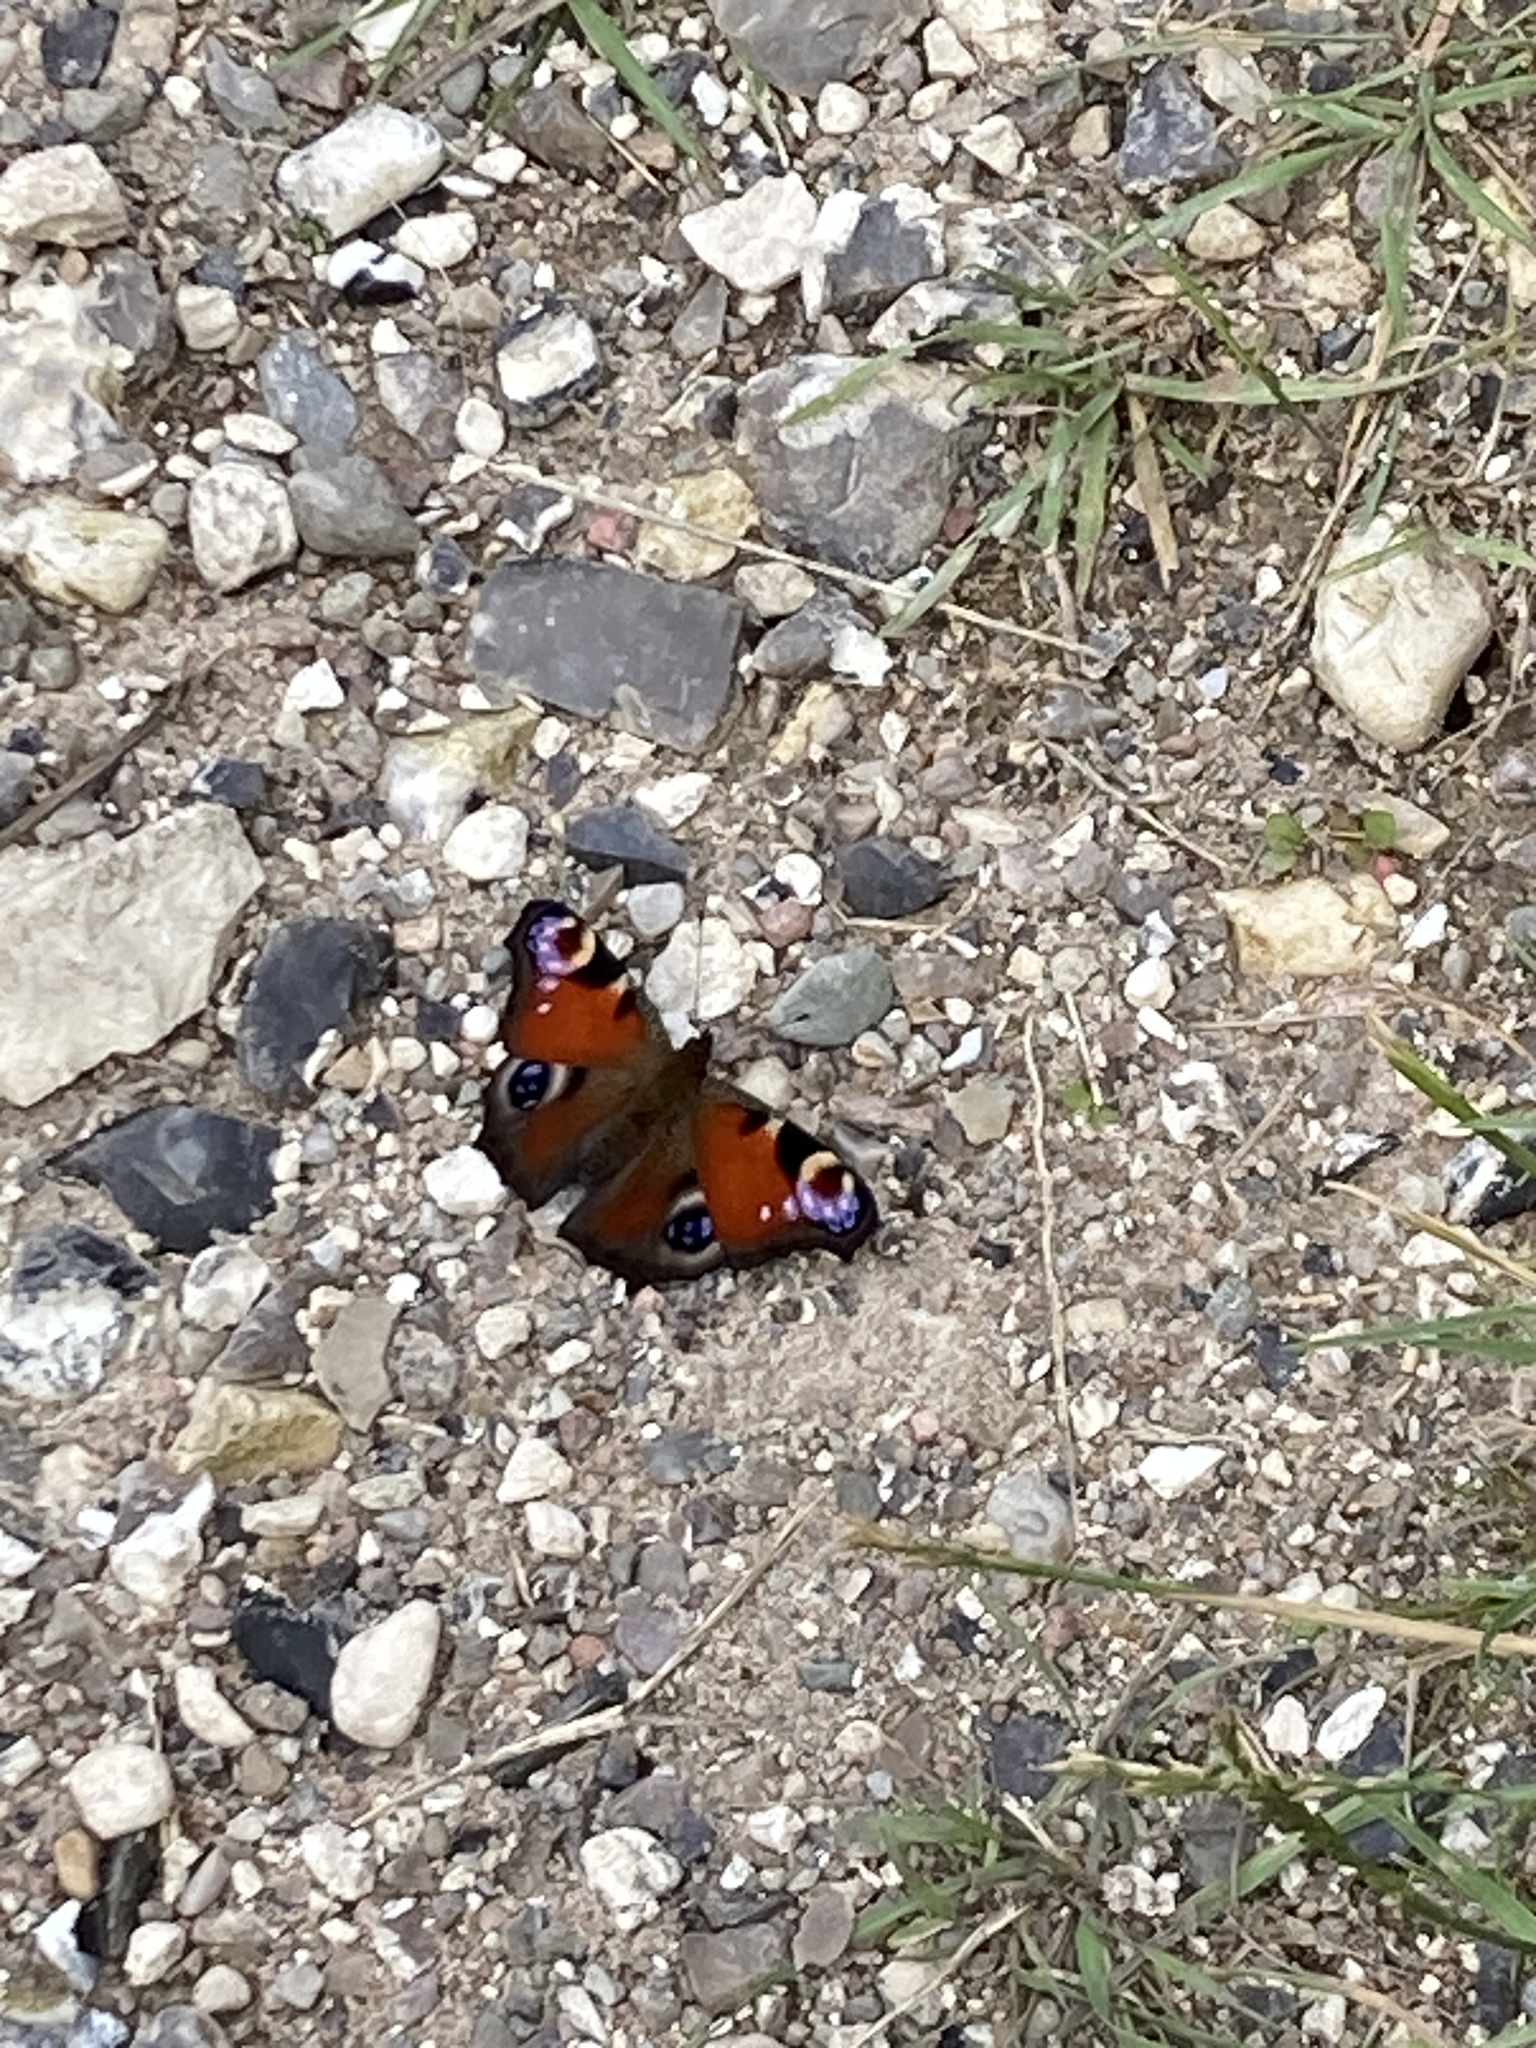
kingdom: Animalia
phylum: Arthropoda
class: Insecta
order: Lepidoptera
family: Nymphalidae
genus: Aglais
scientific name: Aglais io
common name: Peacock
